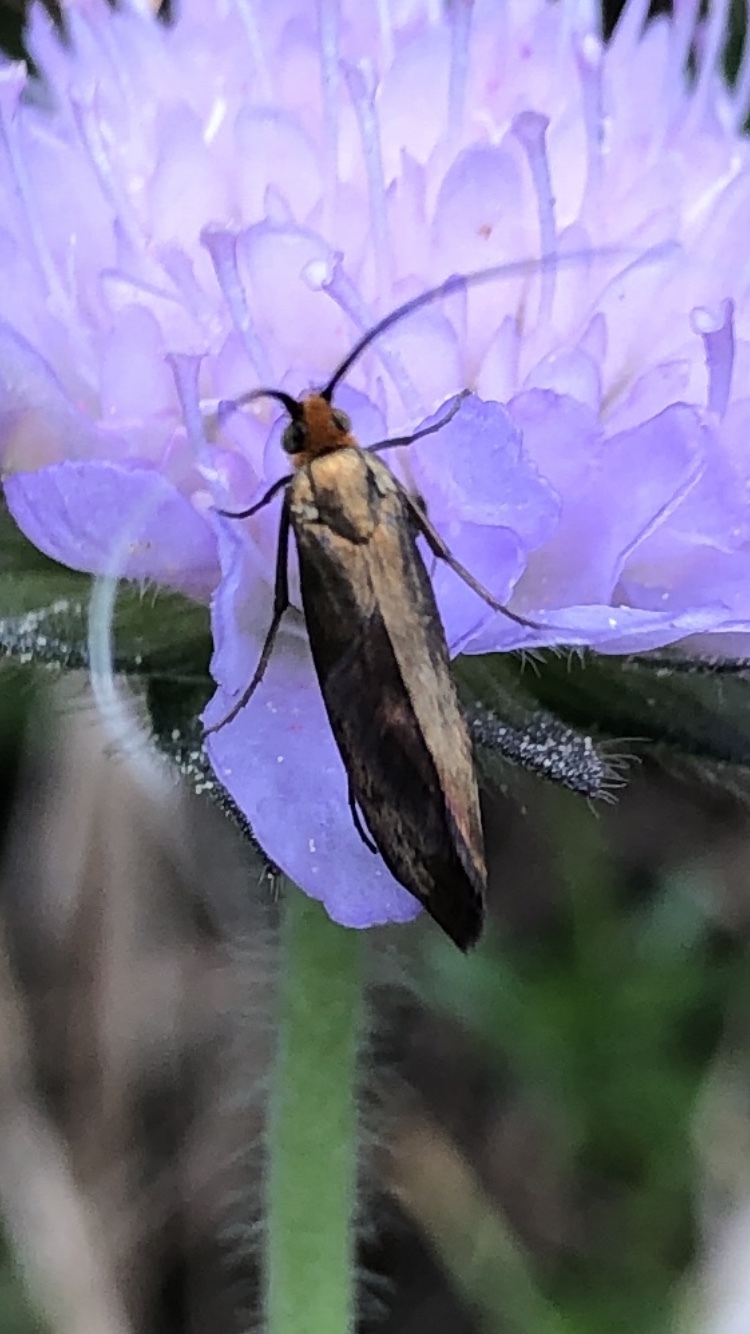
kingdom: Animalia
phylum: Arthropoda
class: Insecta
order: Lepidoptera
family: Adelidae
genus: Nemophora
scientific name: Nemophora metallica
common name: Brassy long-horn
